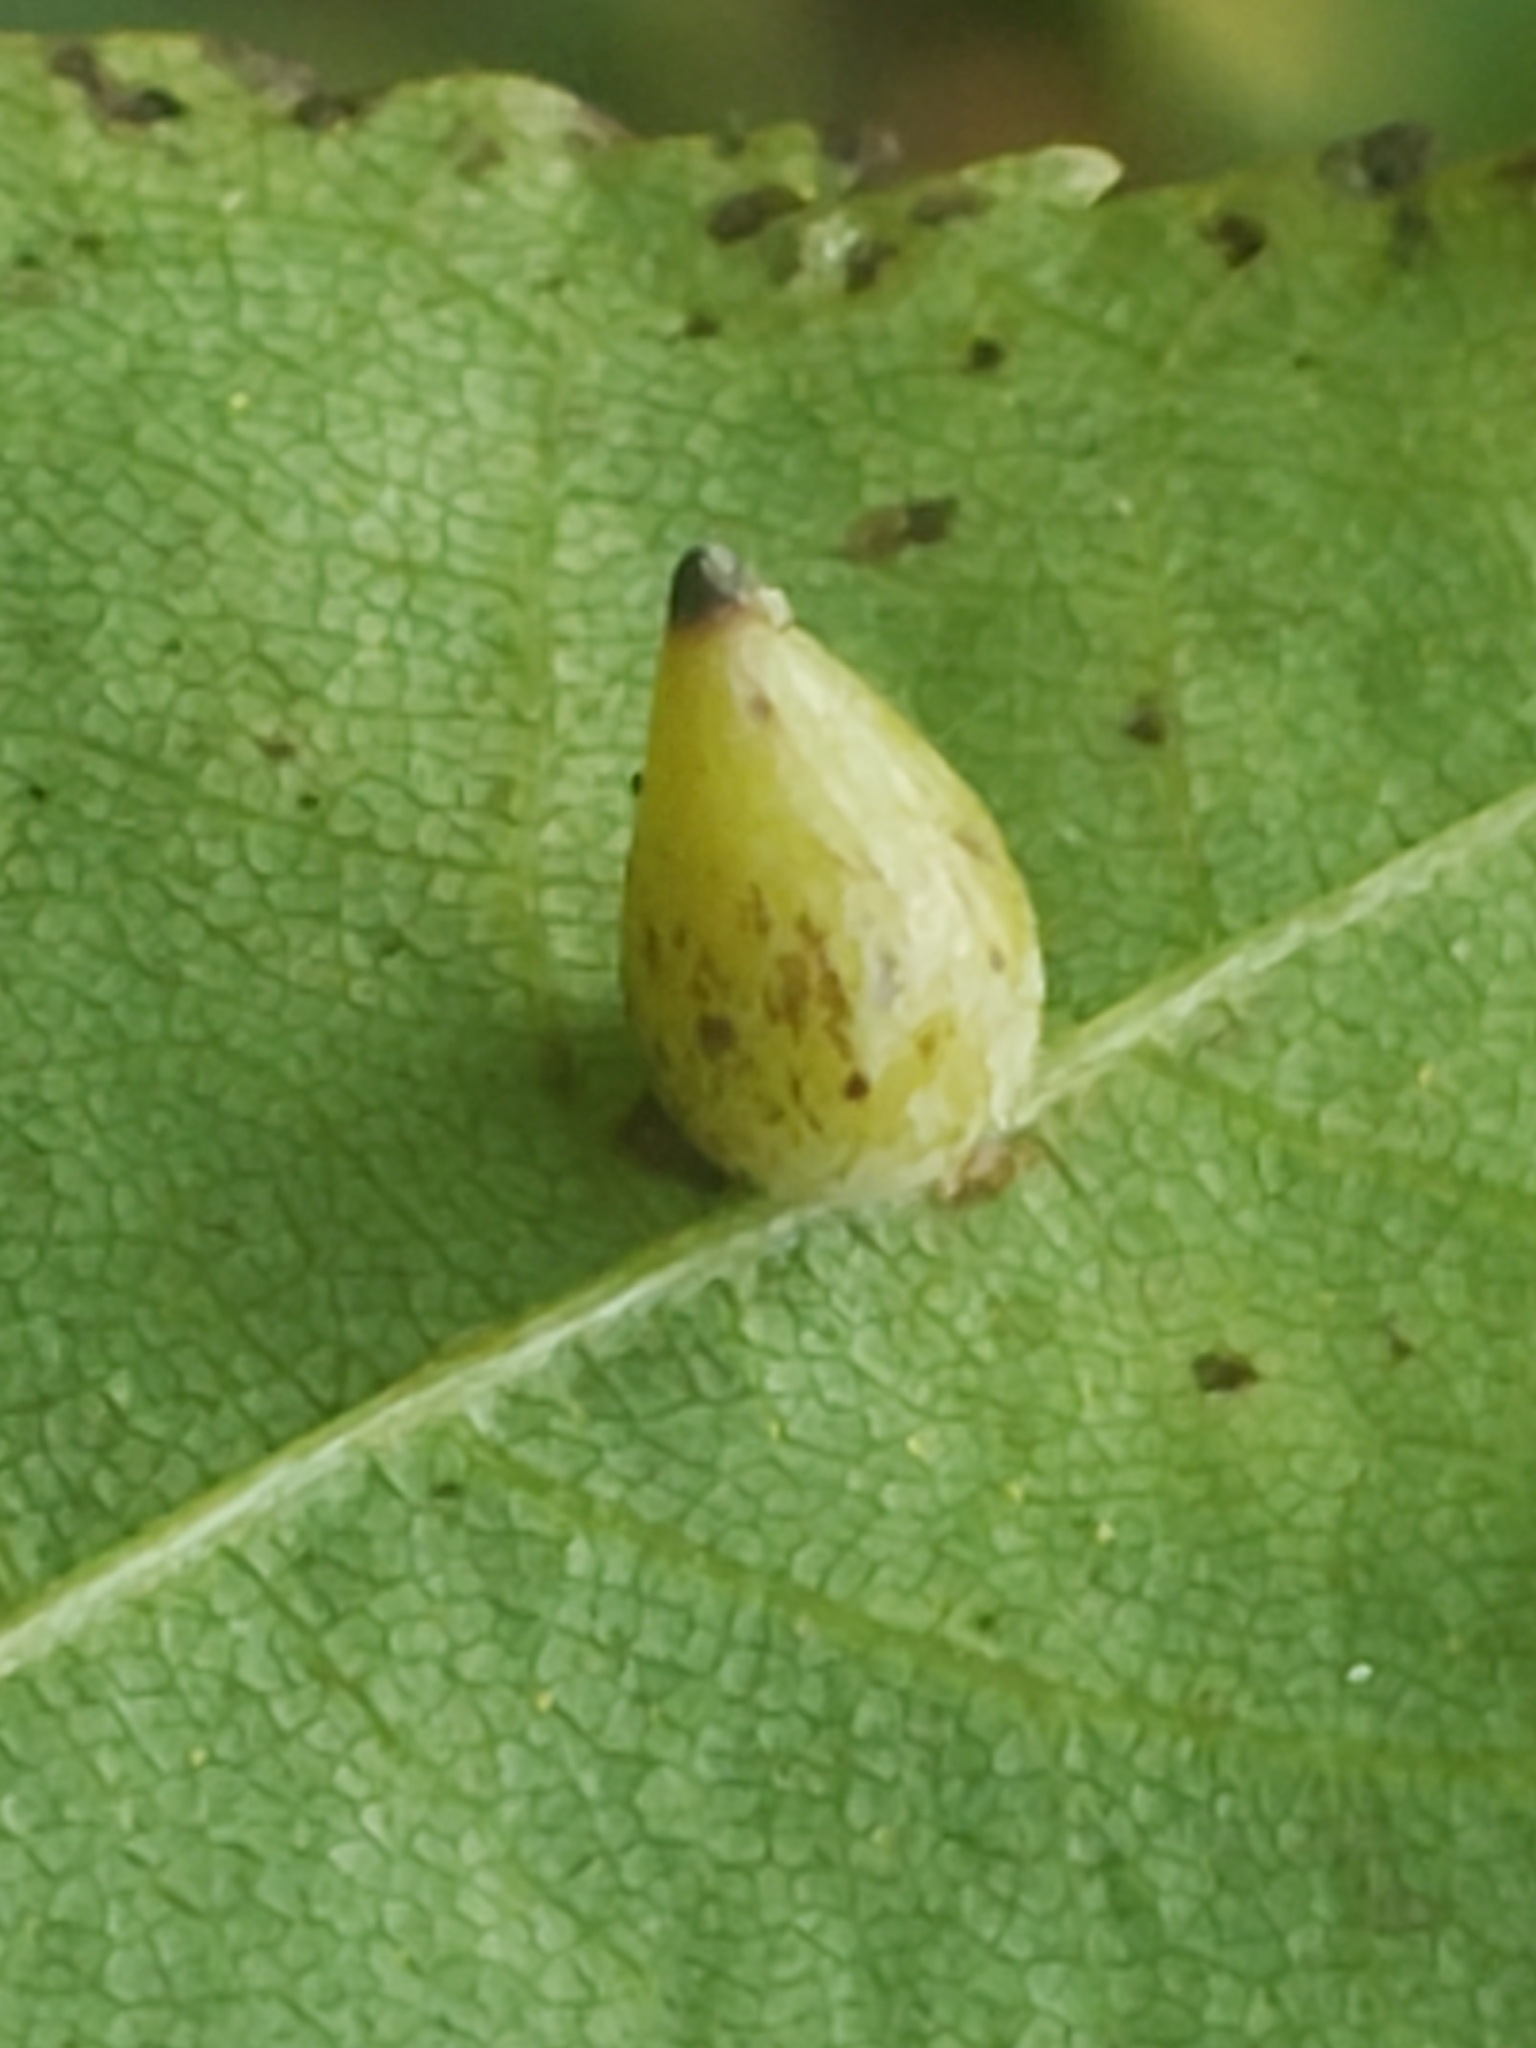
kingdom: Animalia
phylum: Arthropoda
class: Insecta
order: Diptera
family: Cecidomyiidae
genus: Caryomyia
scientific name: Caryomyia caryaecola
